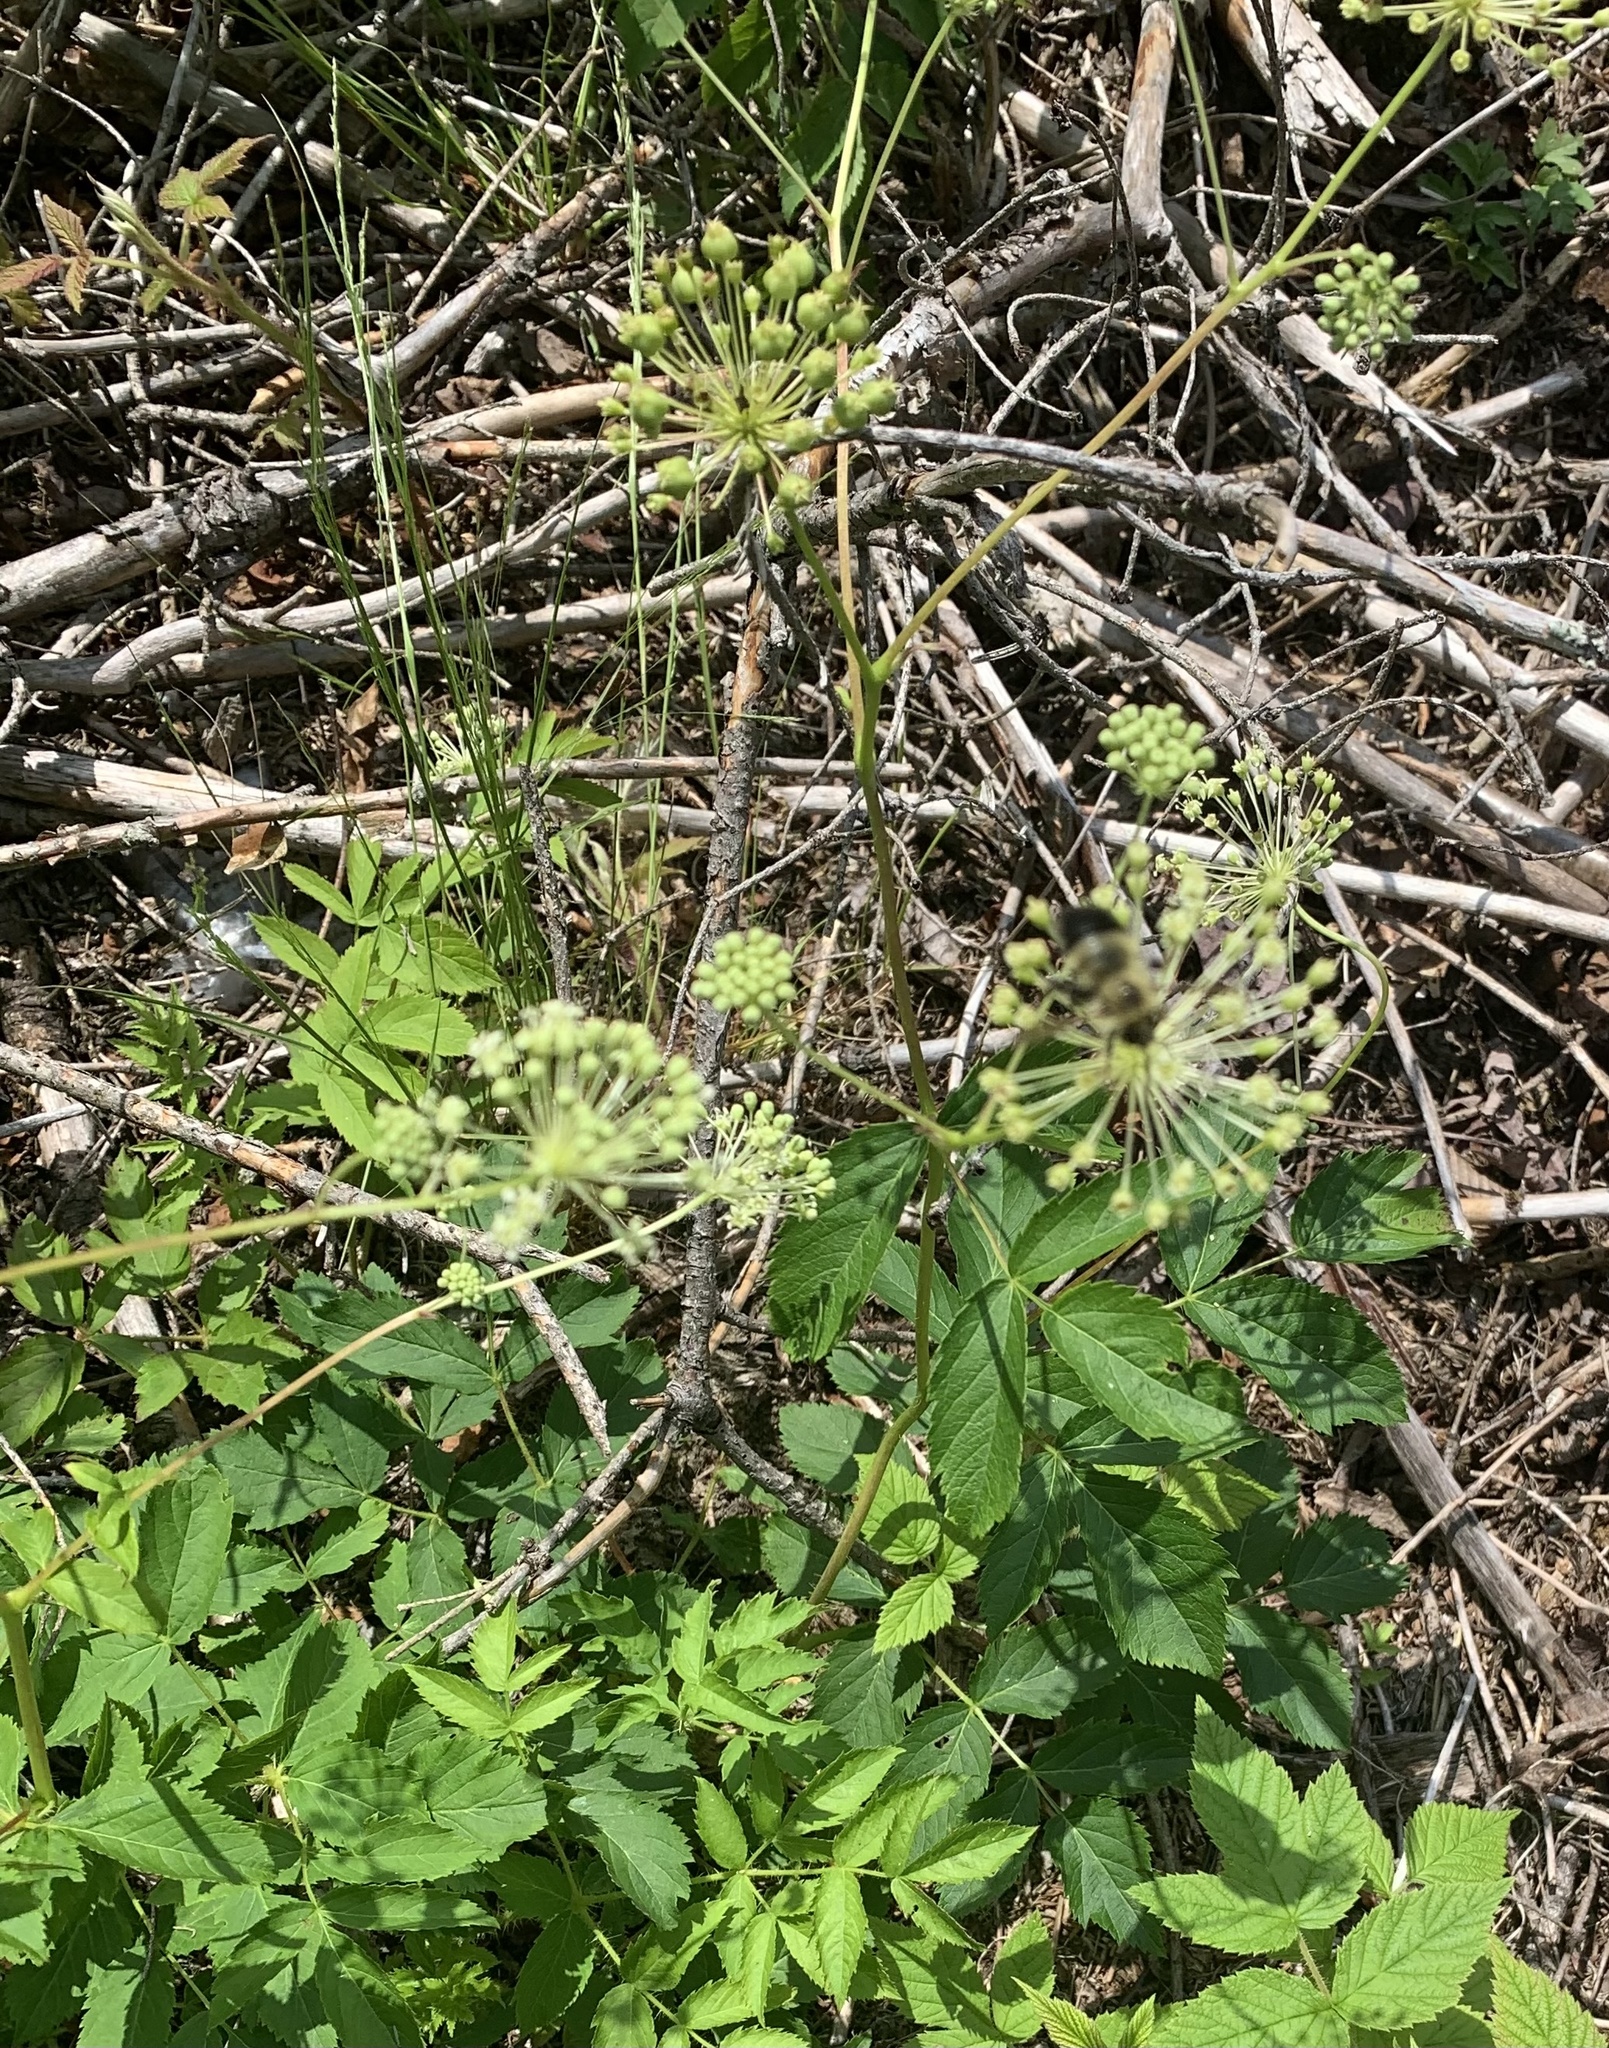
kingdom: Plantae
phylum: Tracheophyta
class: Magnoliopsida
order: Apiales
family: Araliaceae
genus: Aralia
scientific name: Aralia hispida
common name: Bristly sarsaparilla
